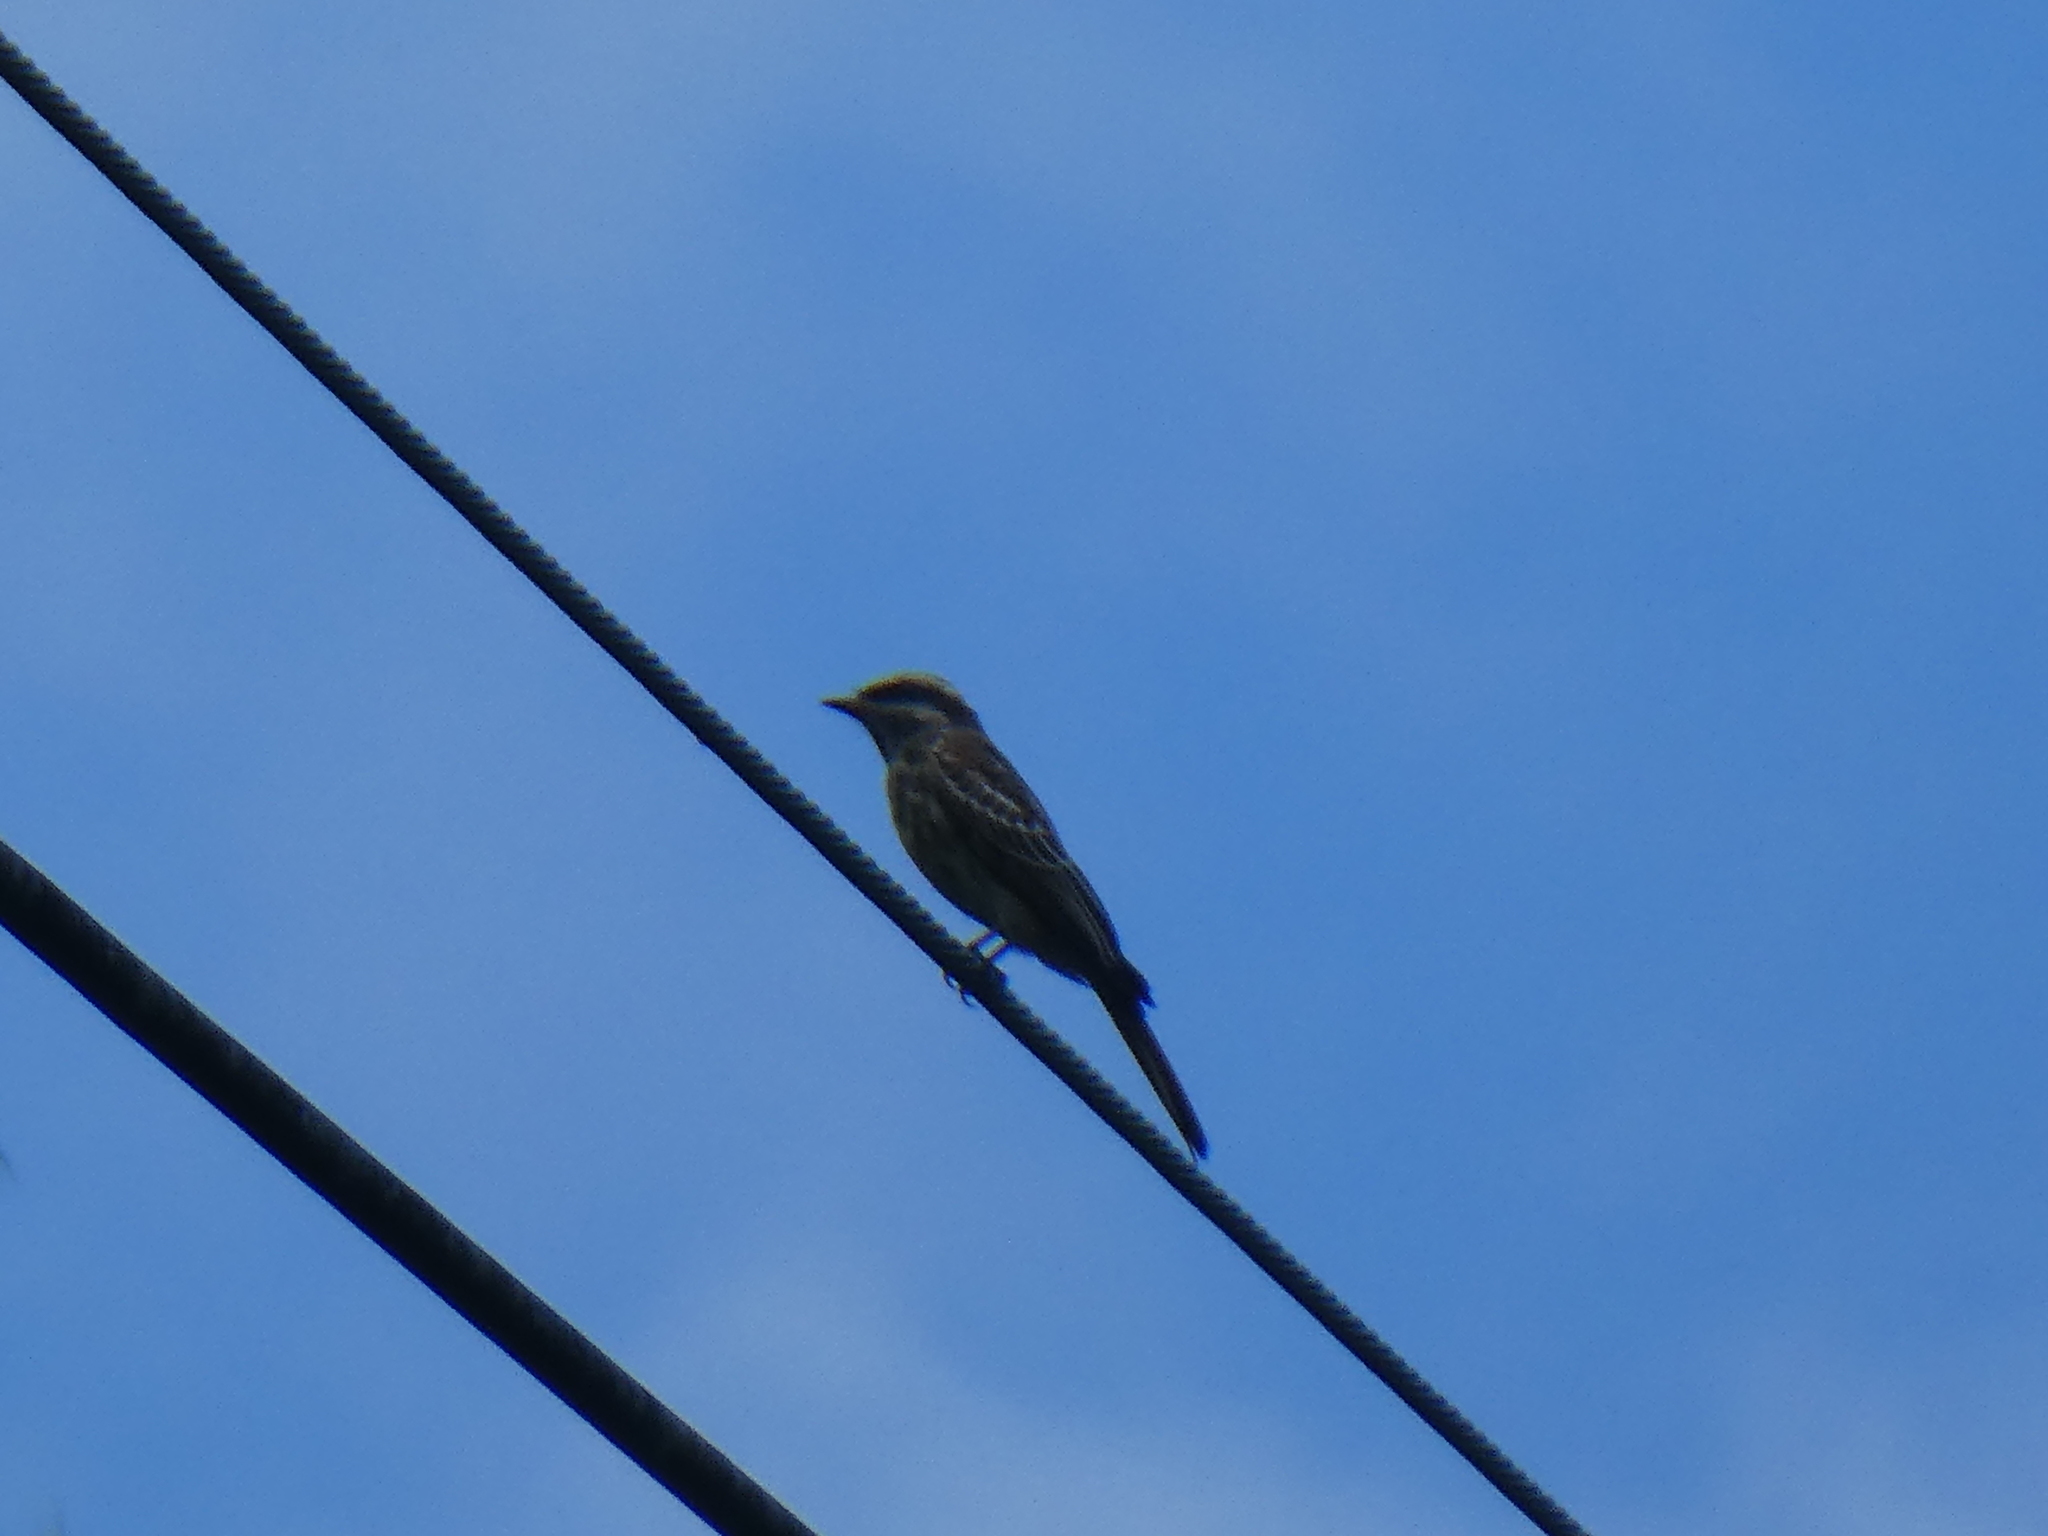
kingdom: Animalia
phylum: Chordata
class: Aves
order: Passeriformes
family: Tyrannidae
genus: Empidonomus
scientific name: Empidonomus varius
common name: Variegated flycatcher
